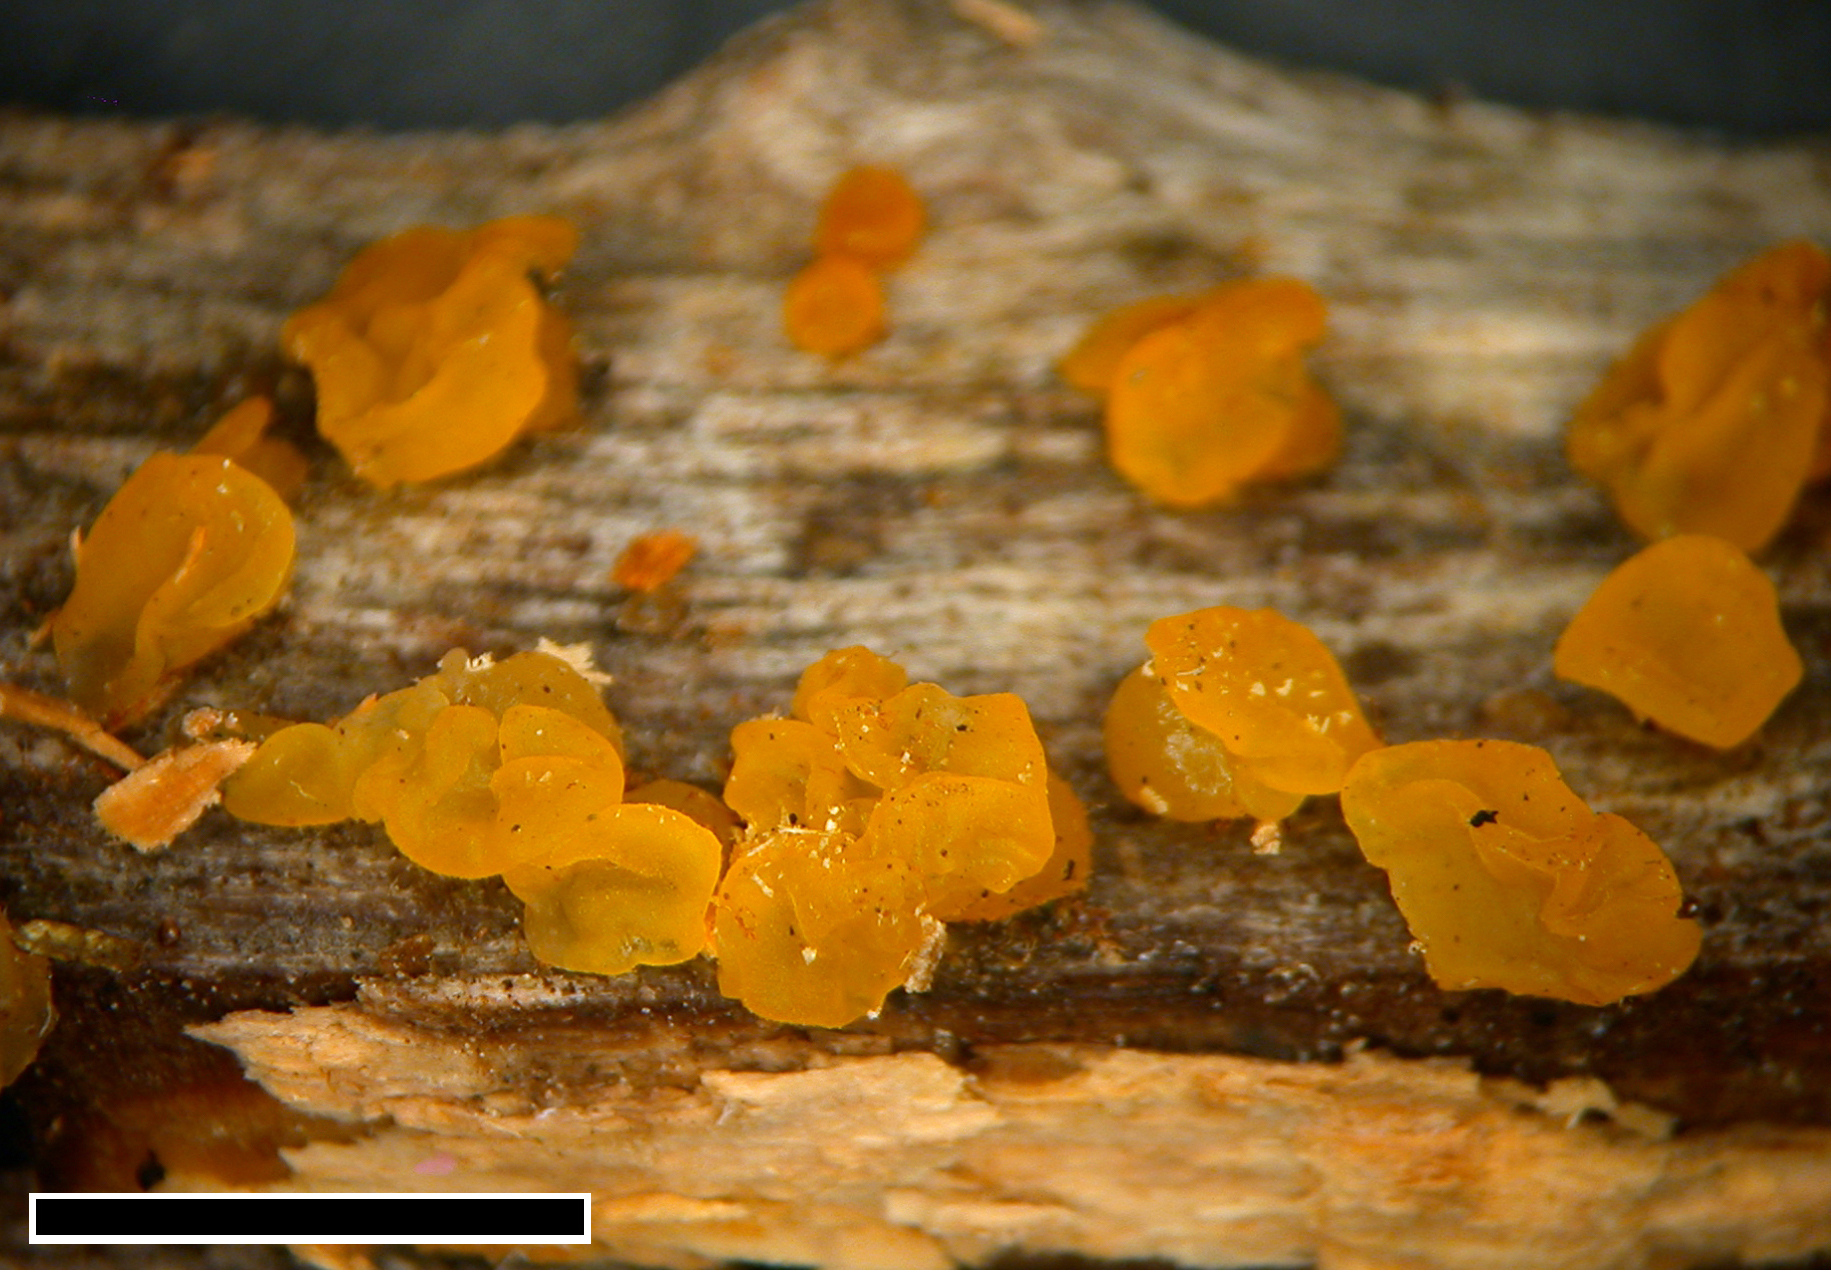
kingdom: Fungi
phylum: Basidiomycota
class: Dacrymycetes
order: Dacrymycetales
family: Dacrymycetaceae
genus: Dacrymyces
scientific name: Dacrymyces lacrymalis
